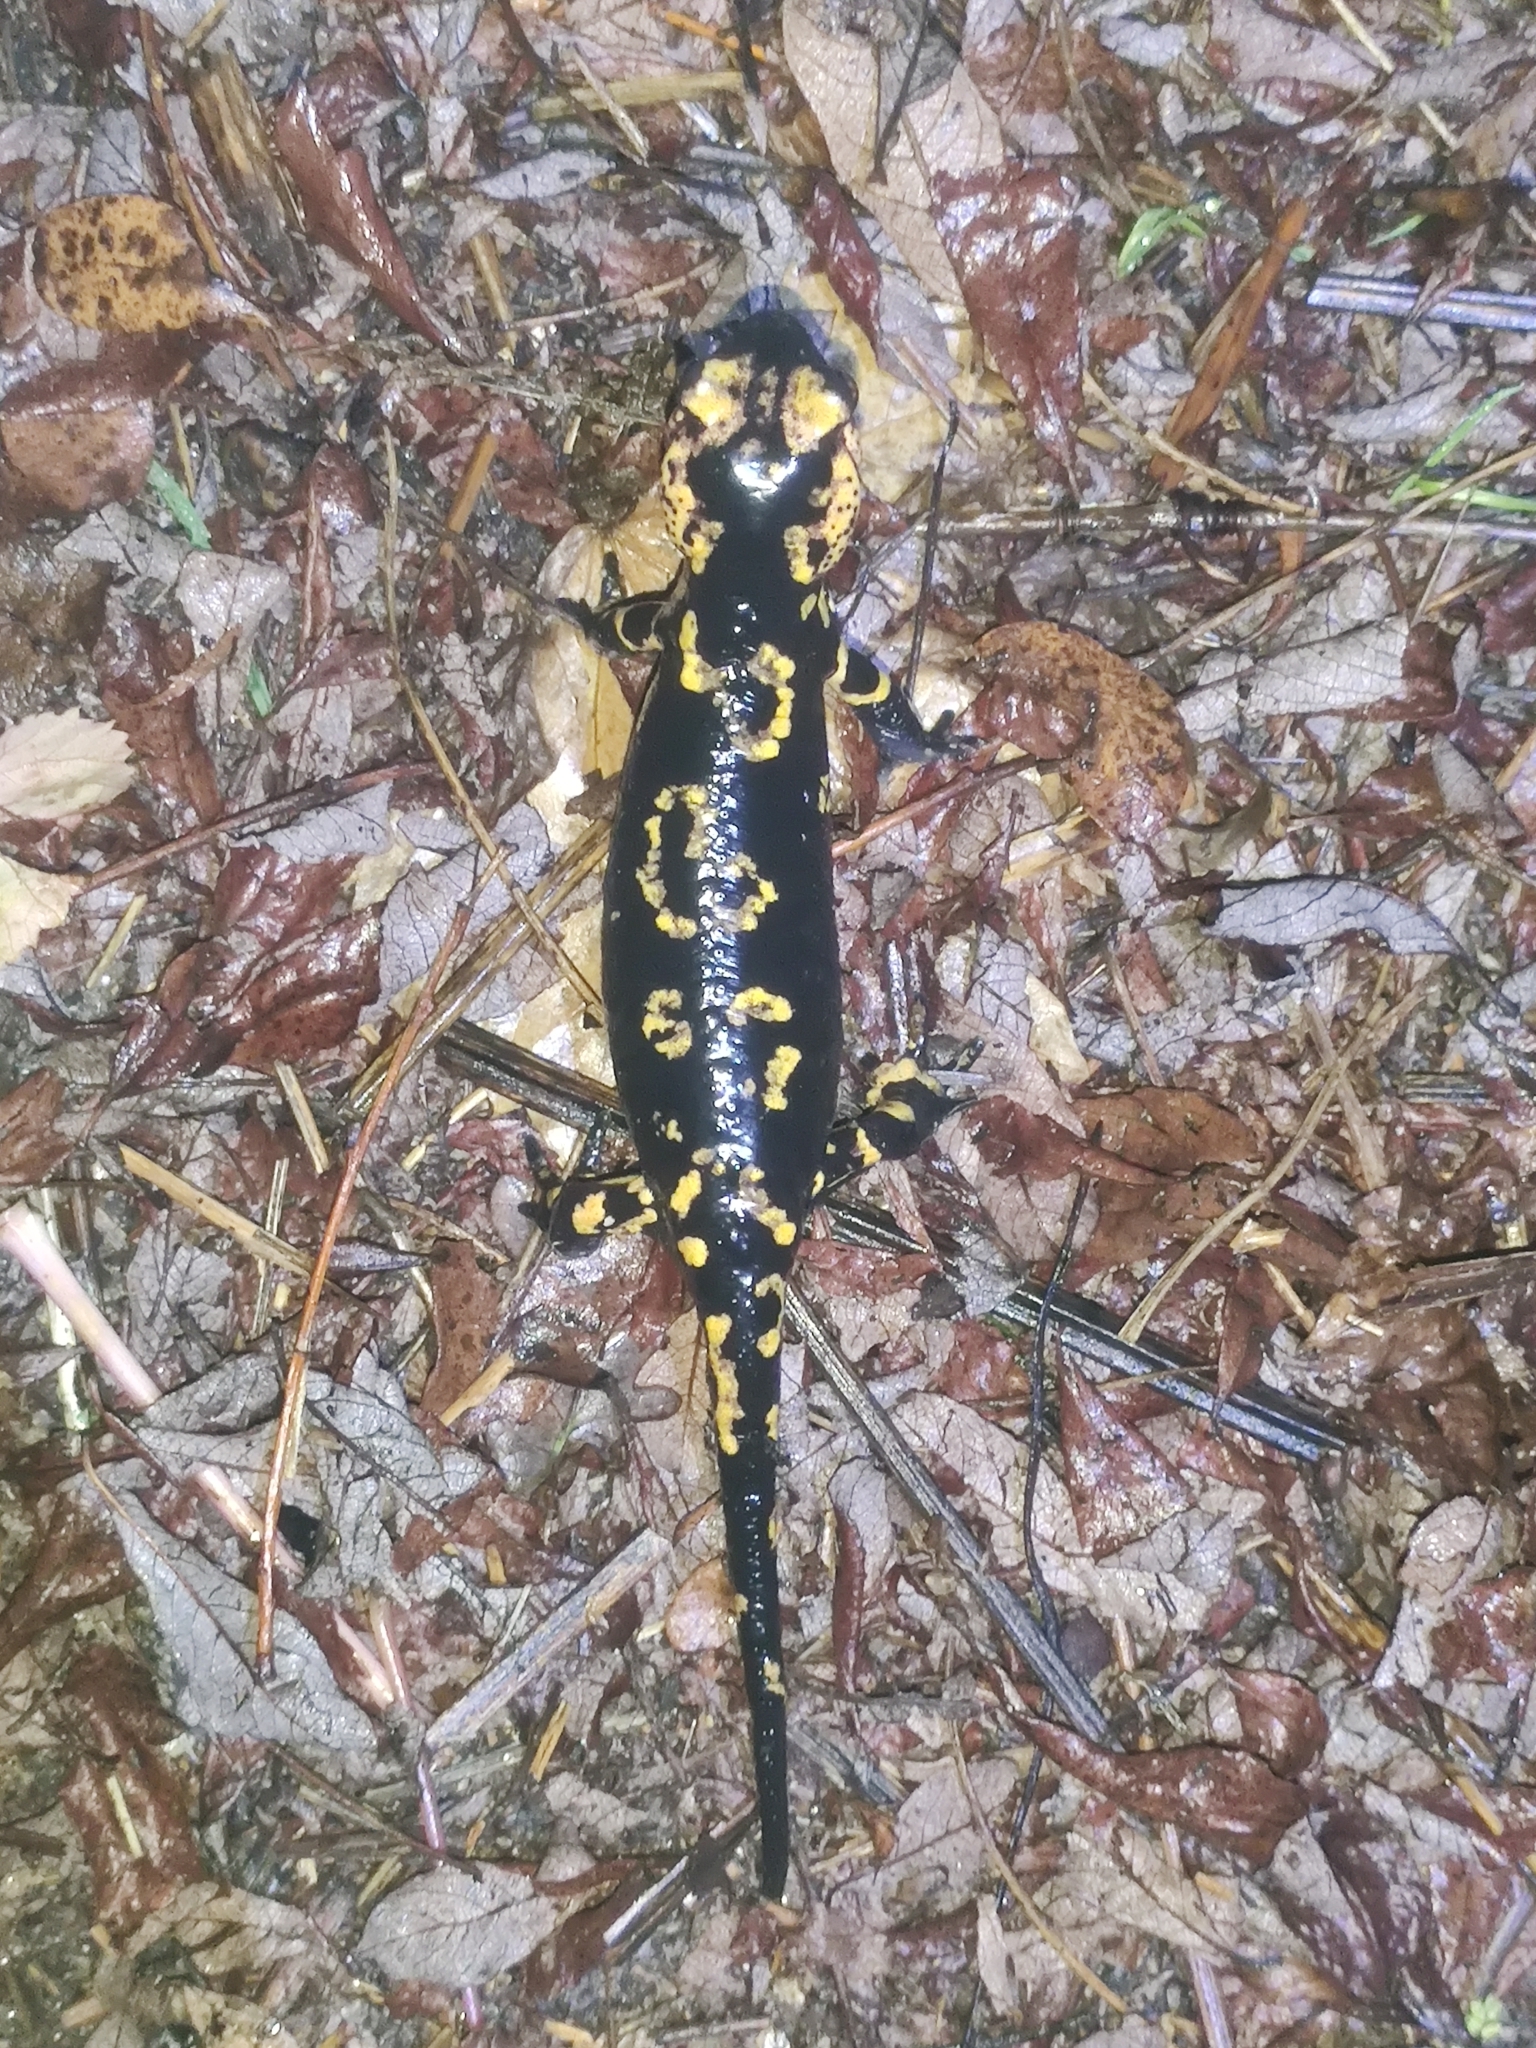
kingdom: Animalia
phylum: Chordata
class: Amphibia
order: Caudata
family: Salamandridae
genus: Salamandra
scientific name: Salamandra salamandra
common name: Fire salamander
